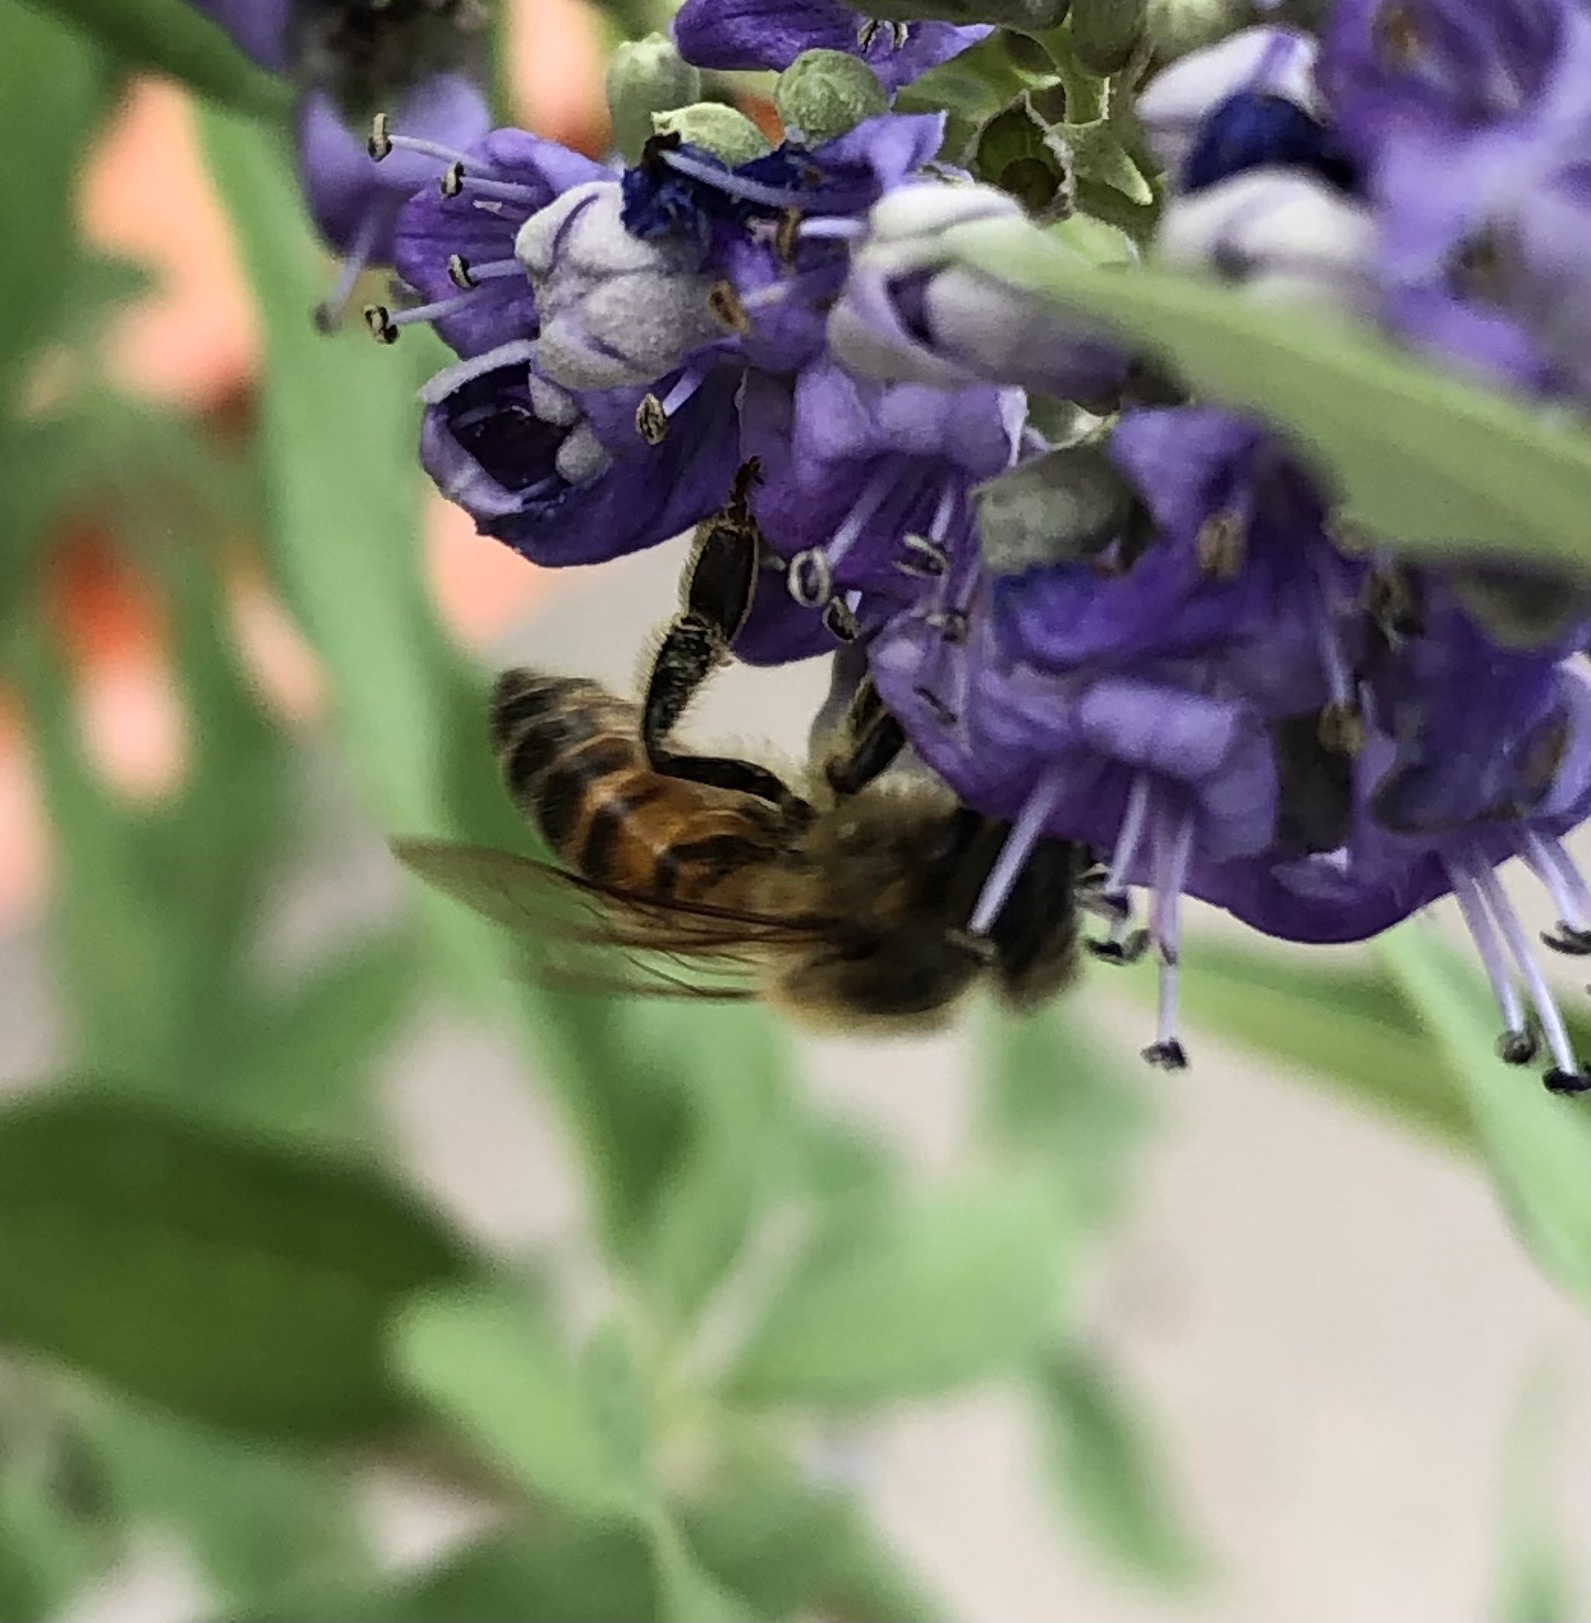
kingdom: Animalia
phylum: Arthropoda
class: Insecta
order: Hymenoptera
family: Apidae
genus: Apis
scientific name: Apis mellifera
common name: Honey bee
